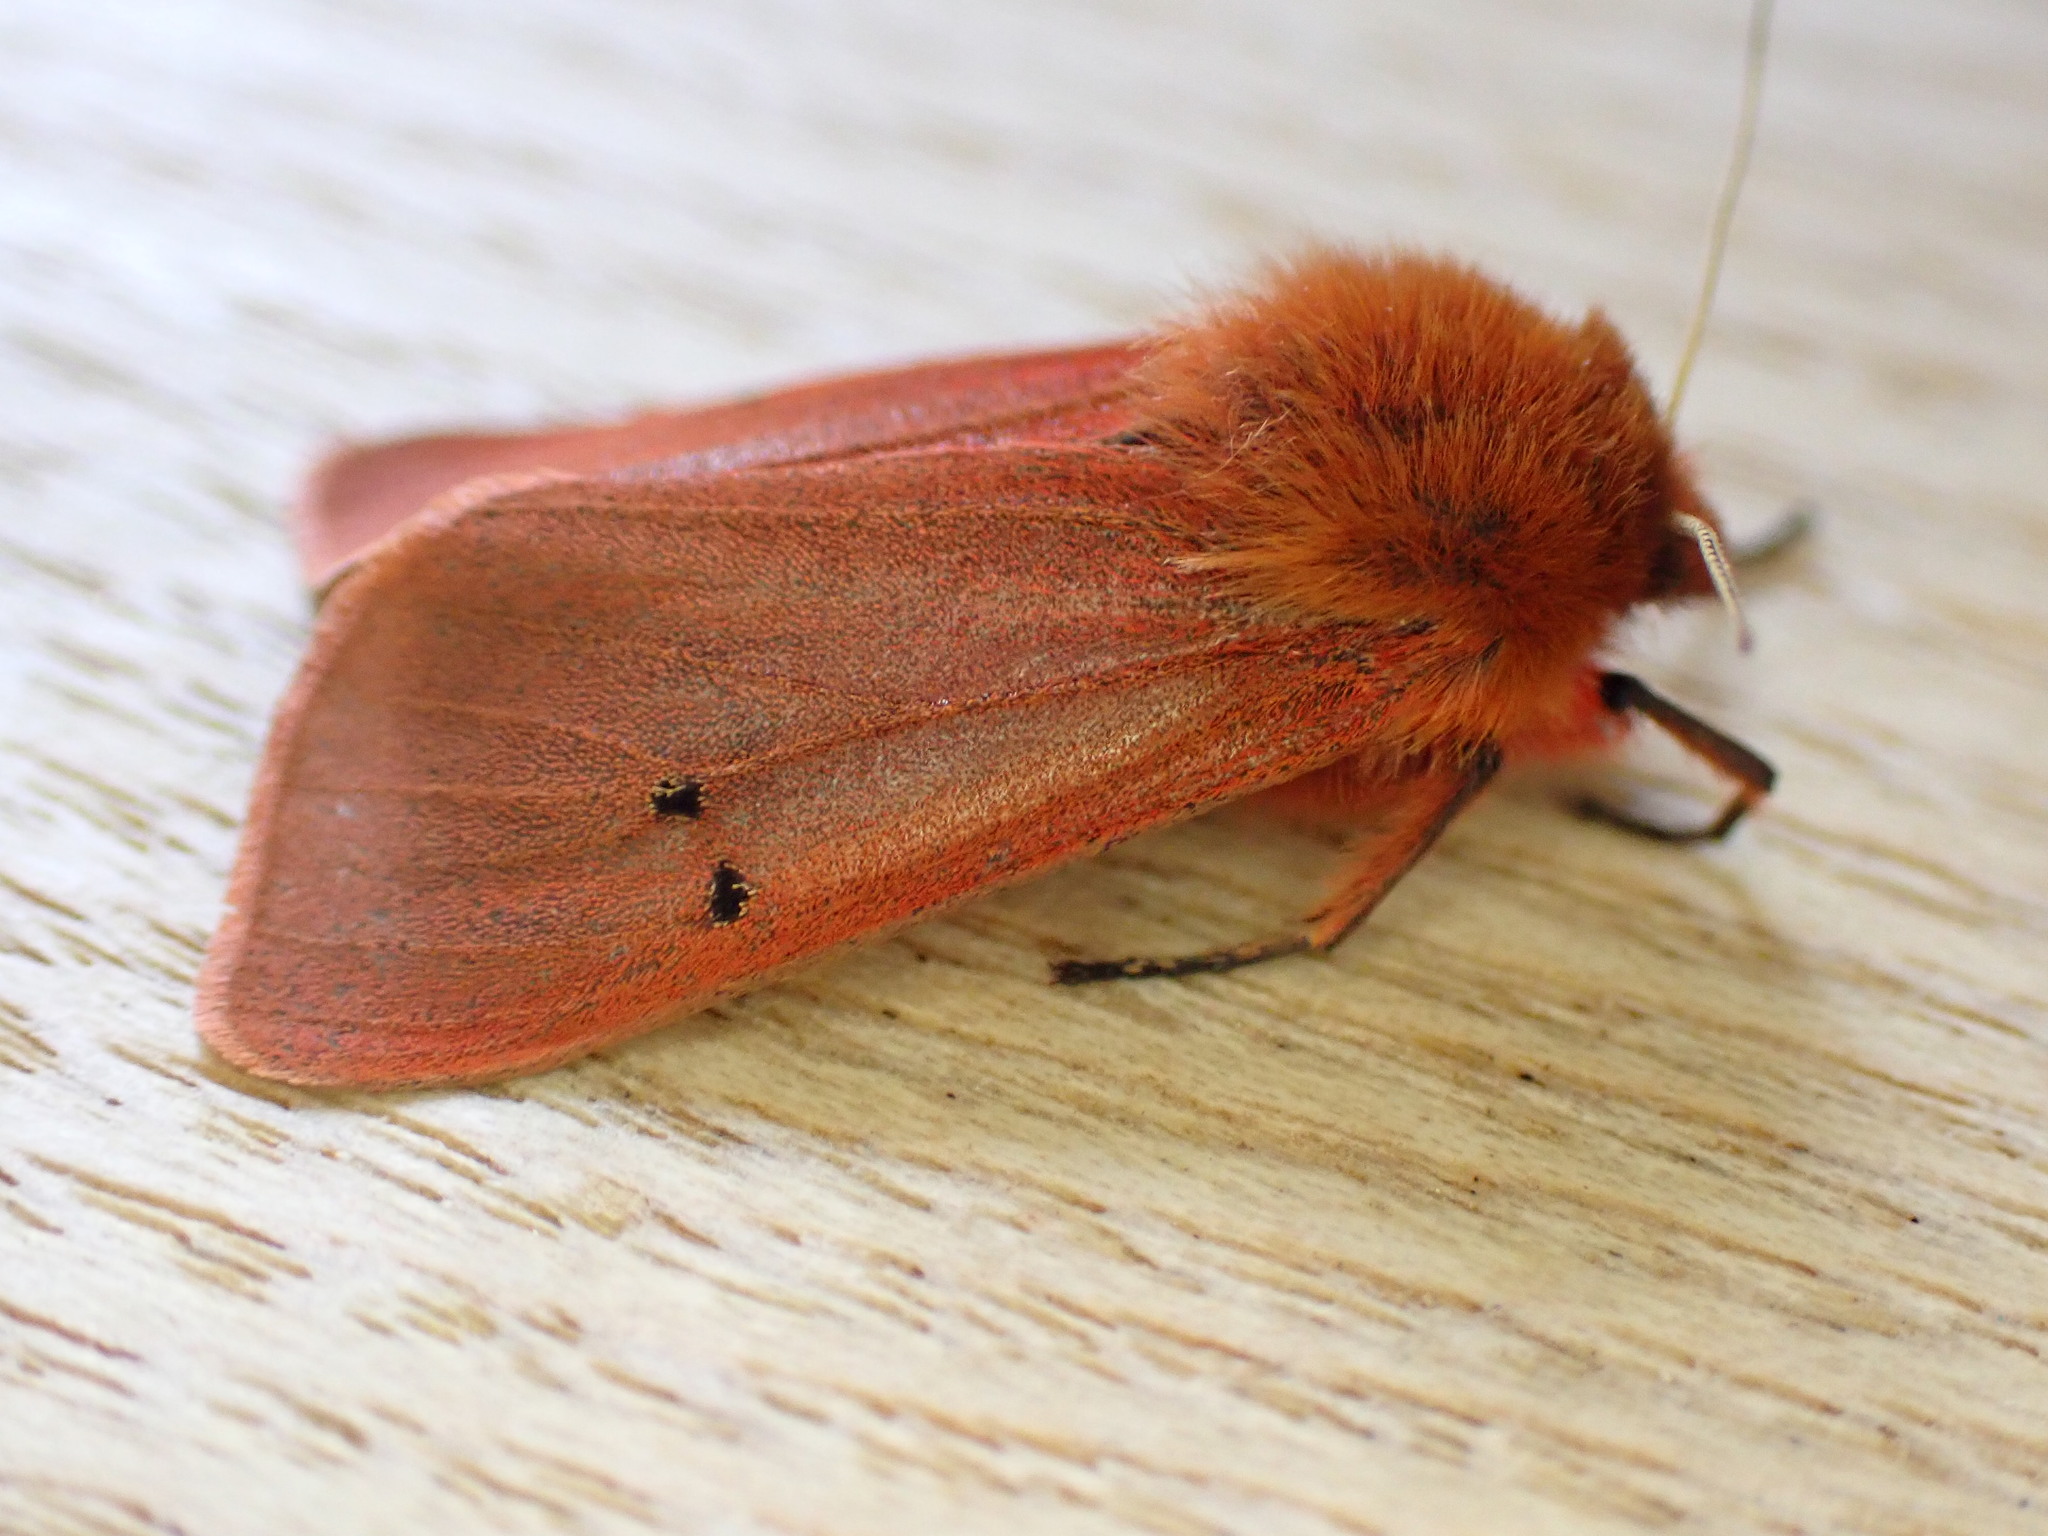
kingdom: Animalia
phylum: Arthropoda
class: Insecta
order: Lepidoptera
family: Erebidae
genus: Phragmatobia
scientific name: Phragmatobia fuliginosa
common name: Ruby tiger
